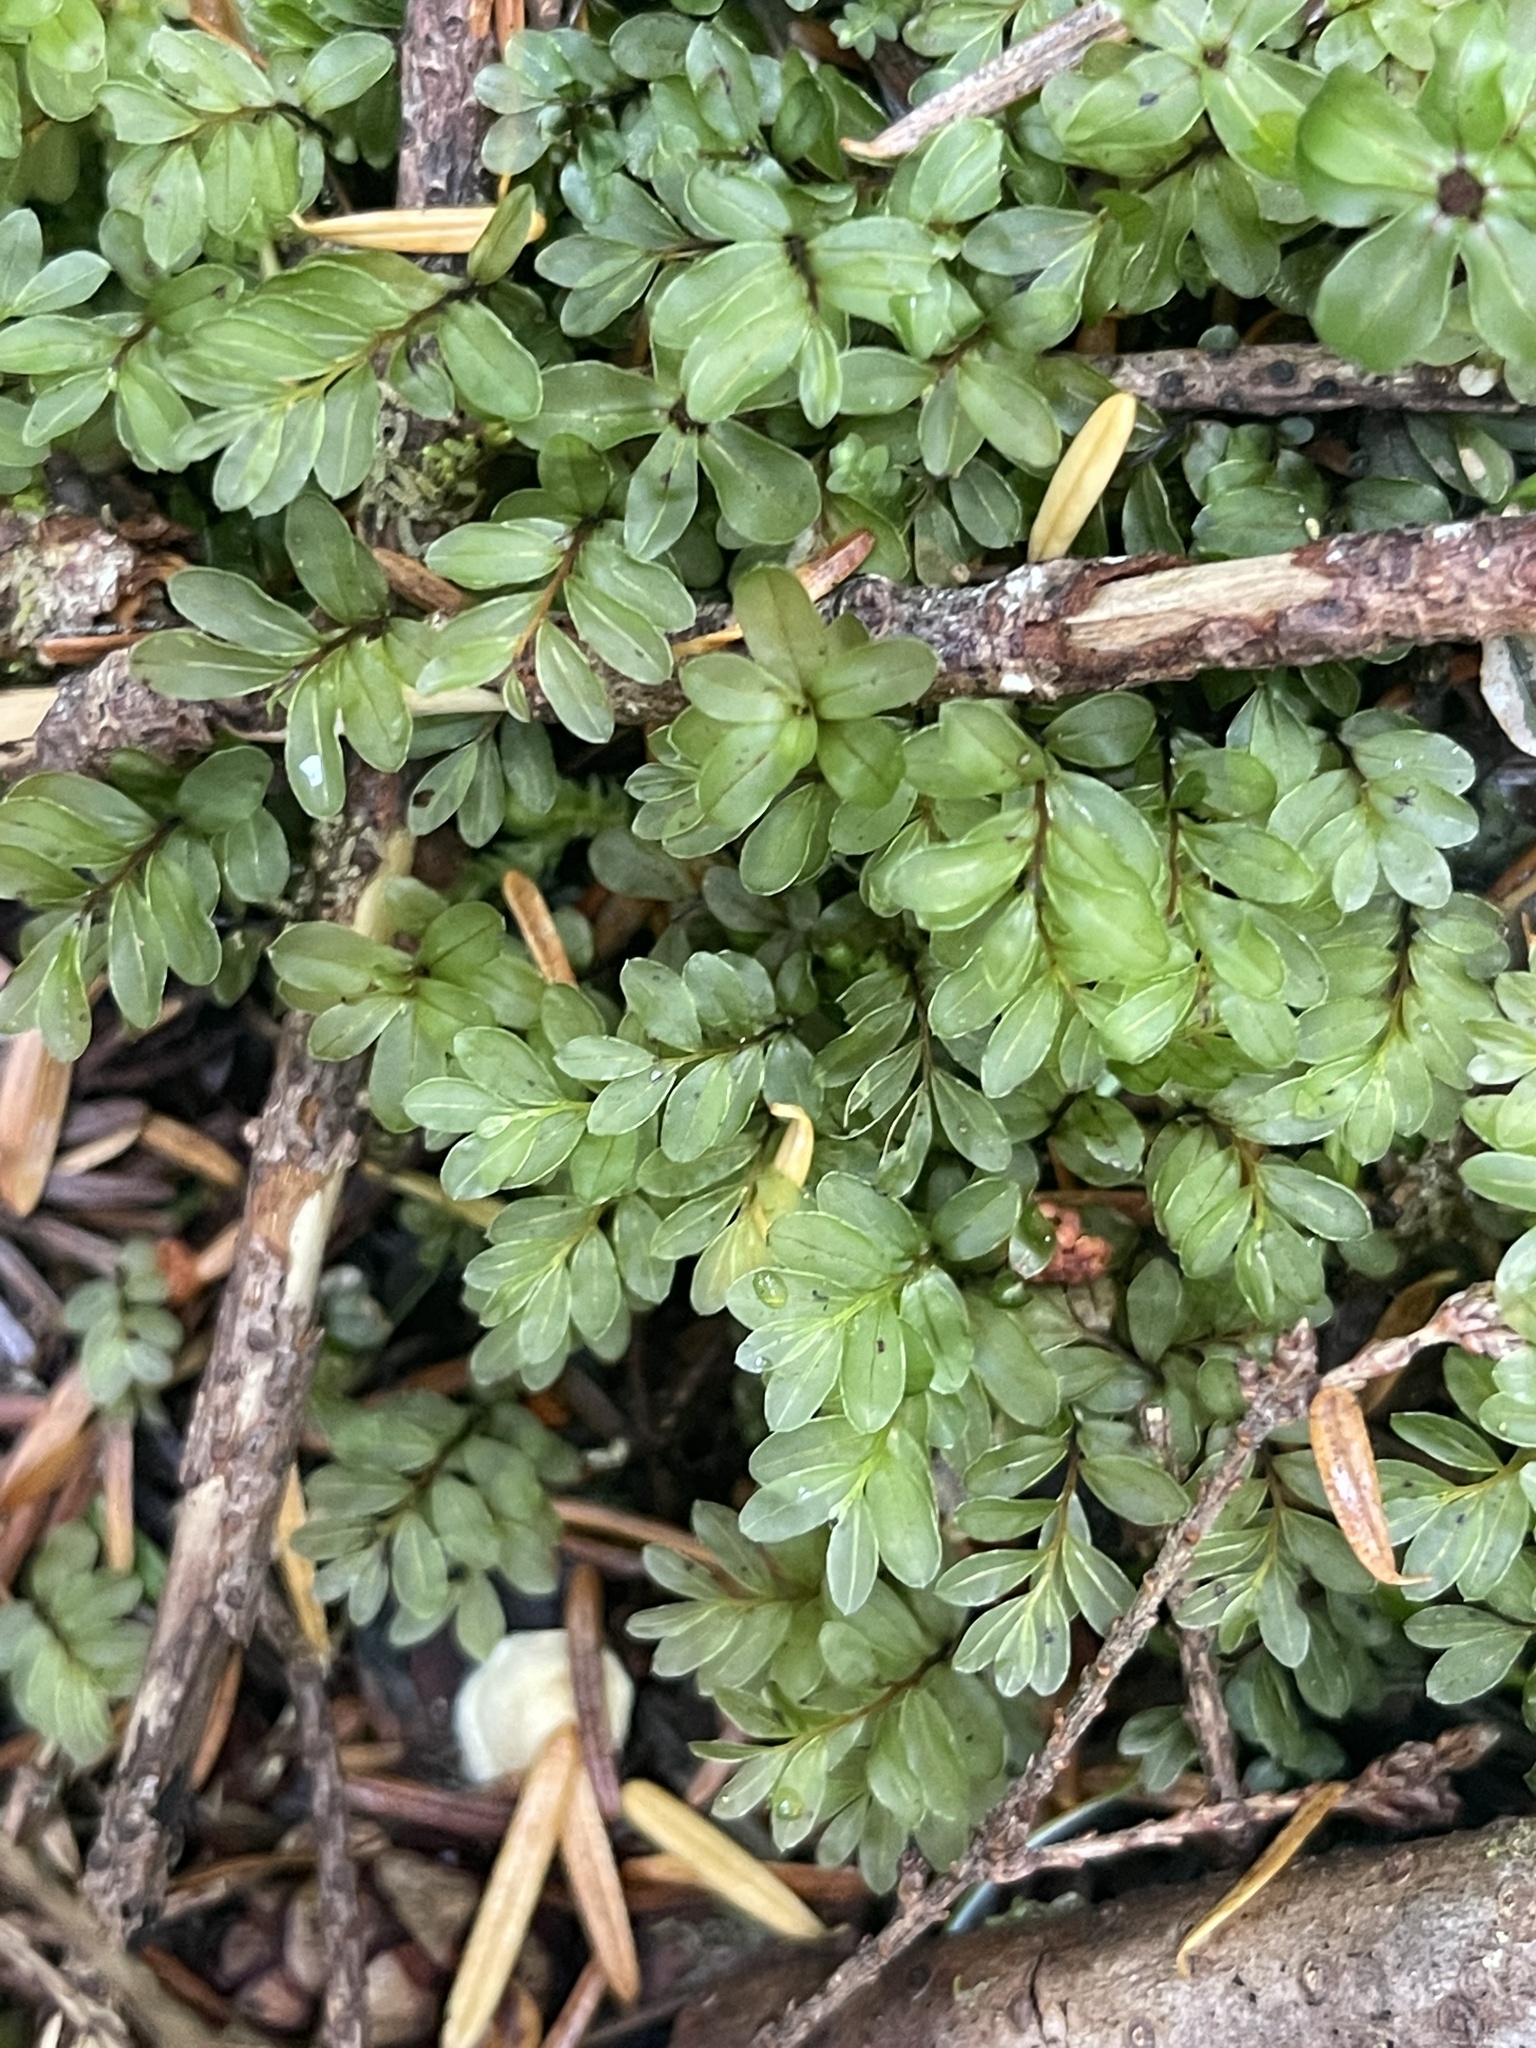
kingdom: Plantae
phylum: Bryophyta
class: Bryopsida
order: Bryales
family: Mniaceae
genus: Rhizomnium
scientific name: Rhizomnium glabrescens
